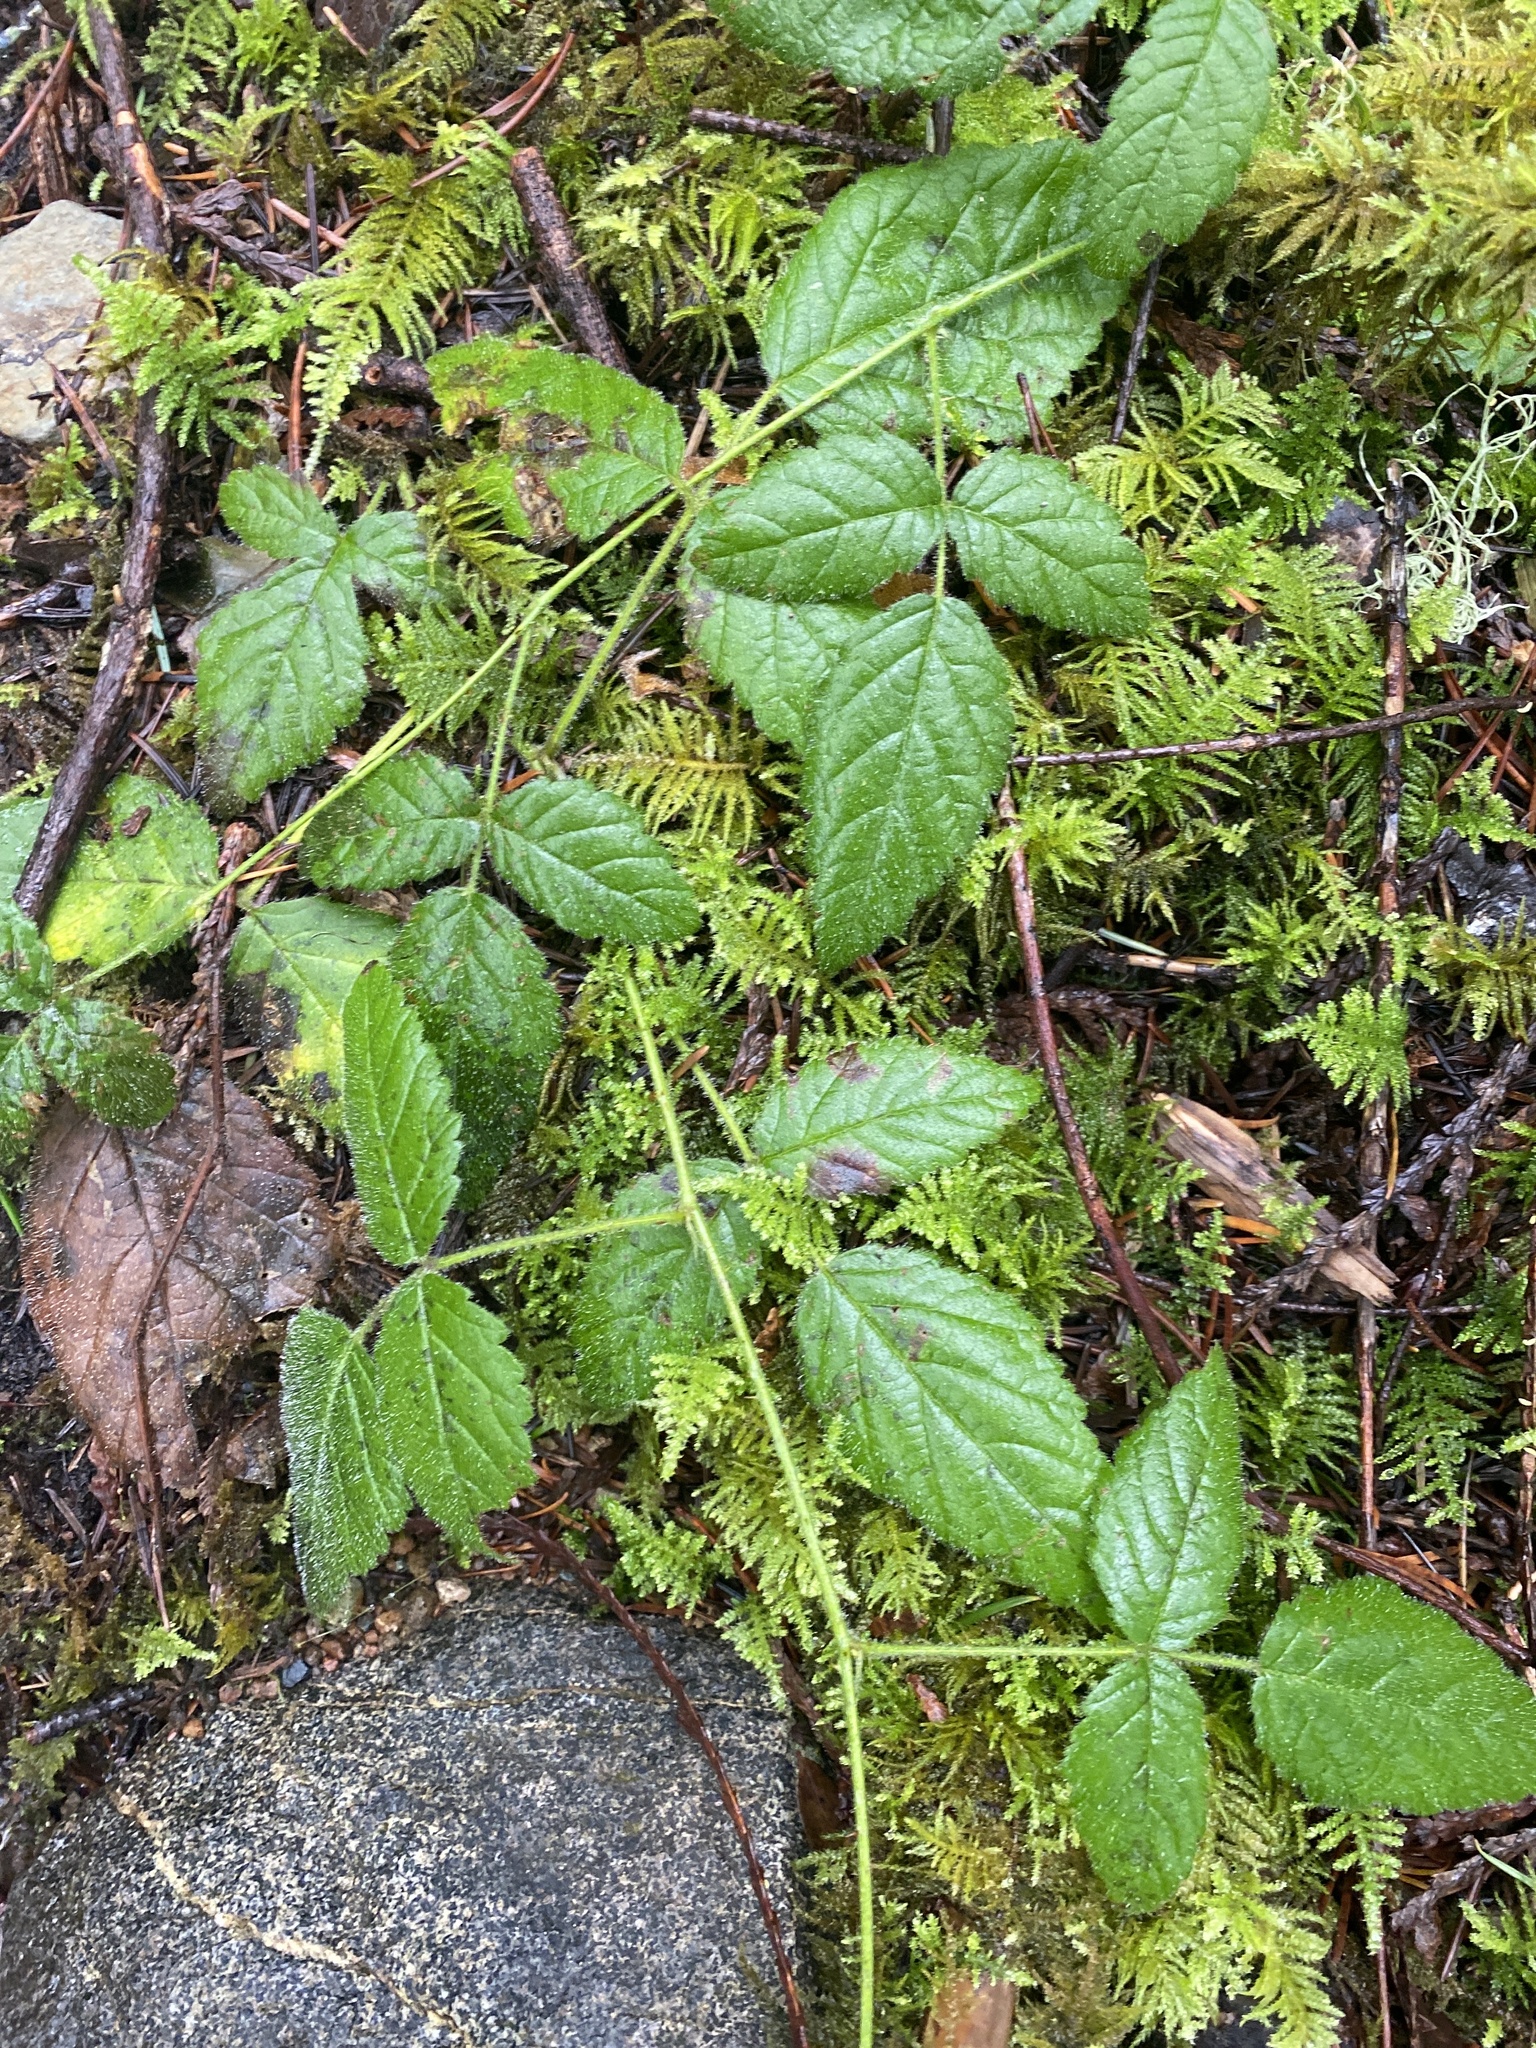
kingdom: Plantae
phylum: Tracheophyta
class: Magnoliopsida
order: Rosales
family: Rosaceae
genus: Rubus
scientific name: Rubus ursinus
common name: Pacific blackberry
